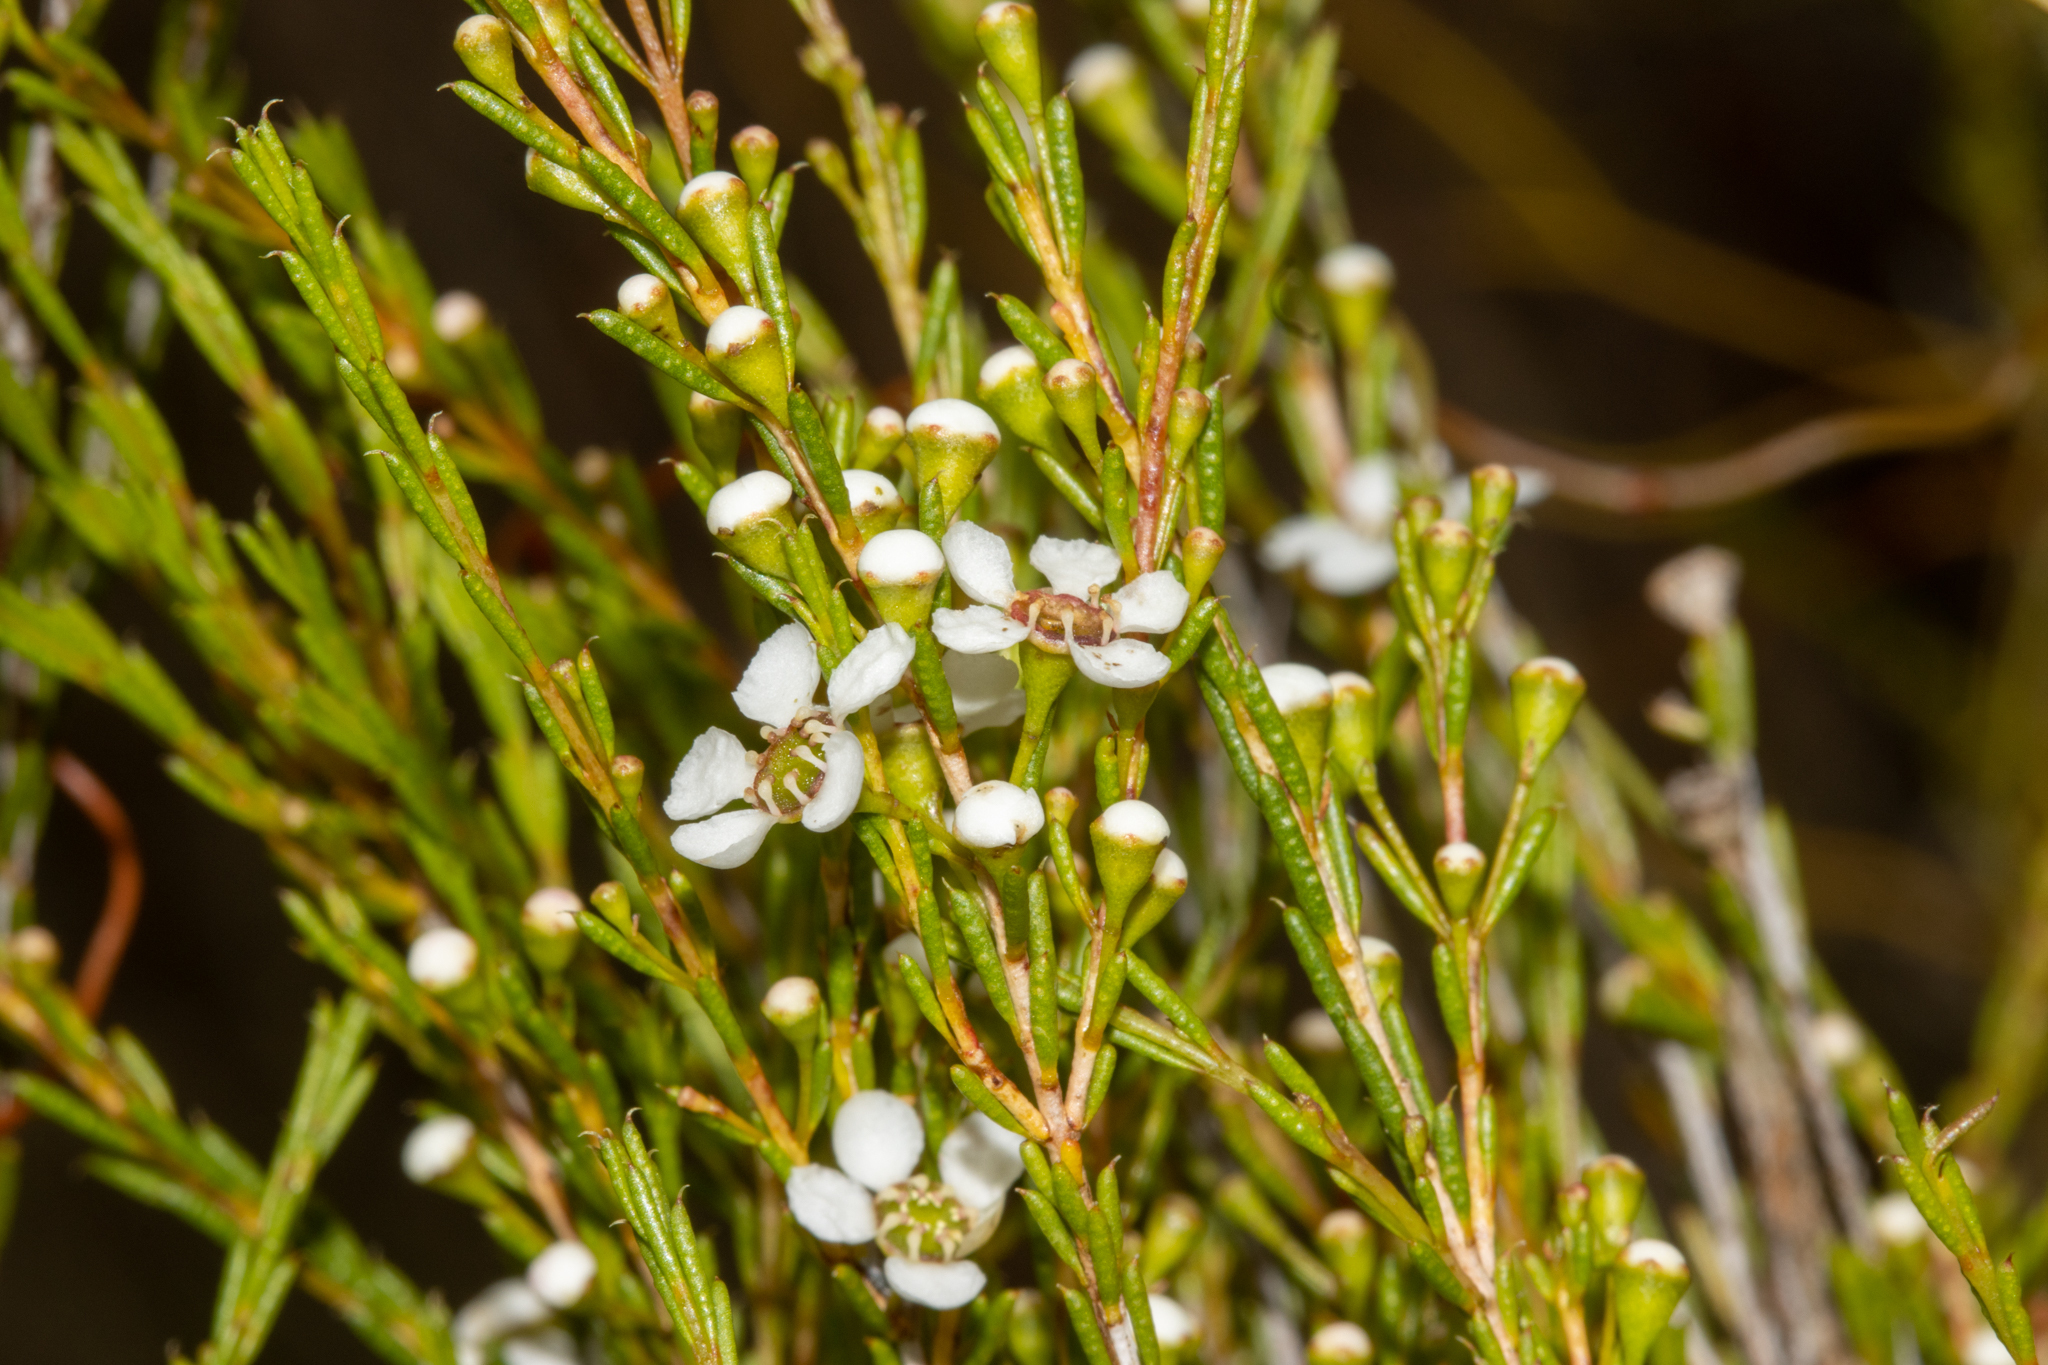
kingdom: Plantae
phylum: Tracheophyta
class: Magnoliopsida
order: Myrtales
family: Myrtaceae
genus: Hysterobaeckea
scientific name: Hysterobaeckea behrii
